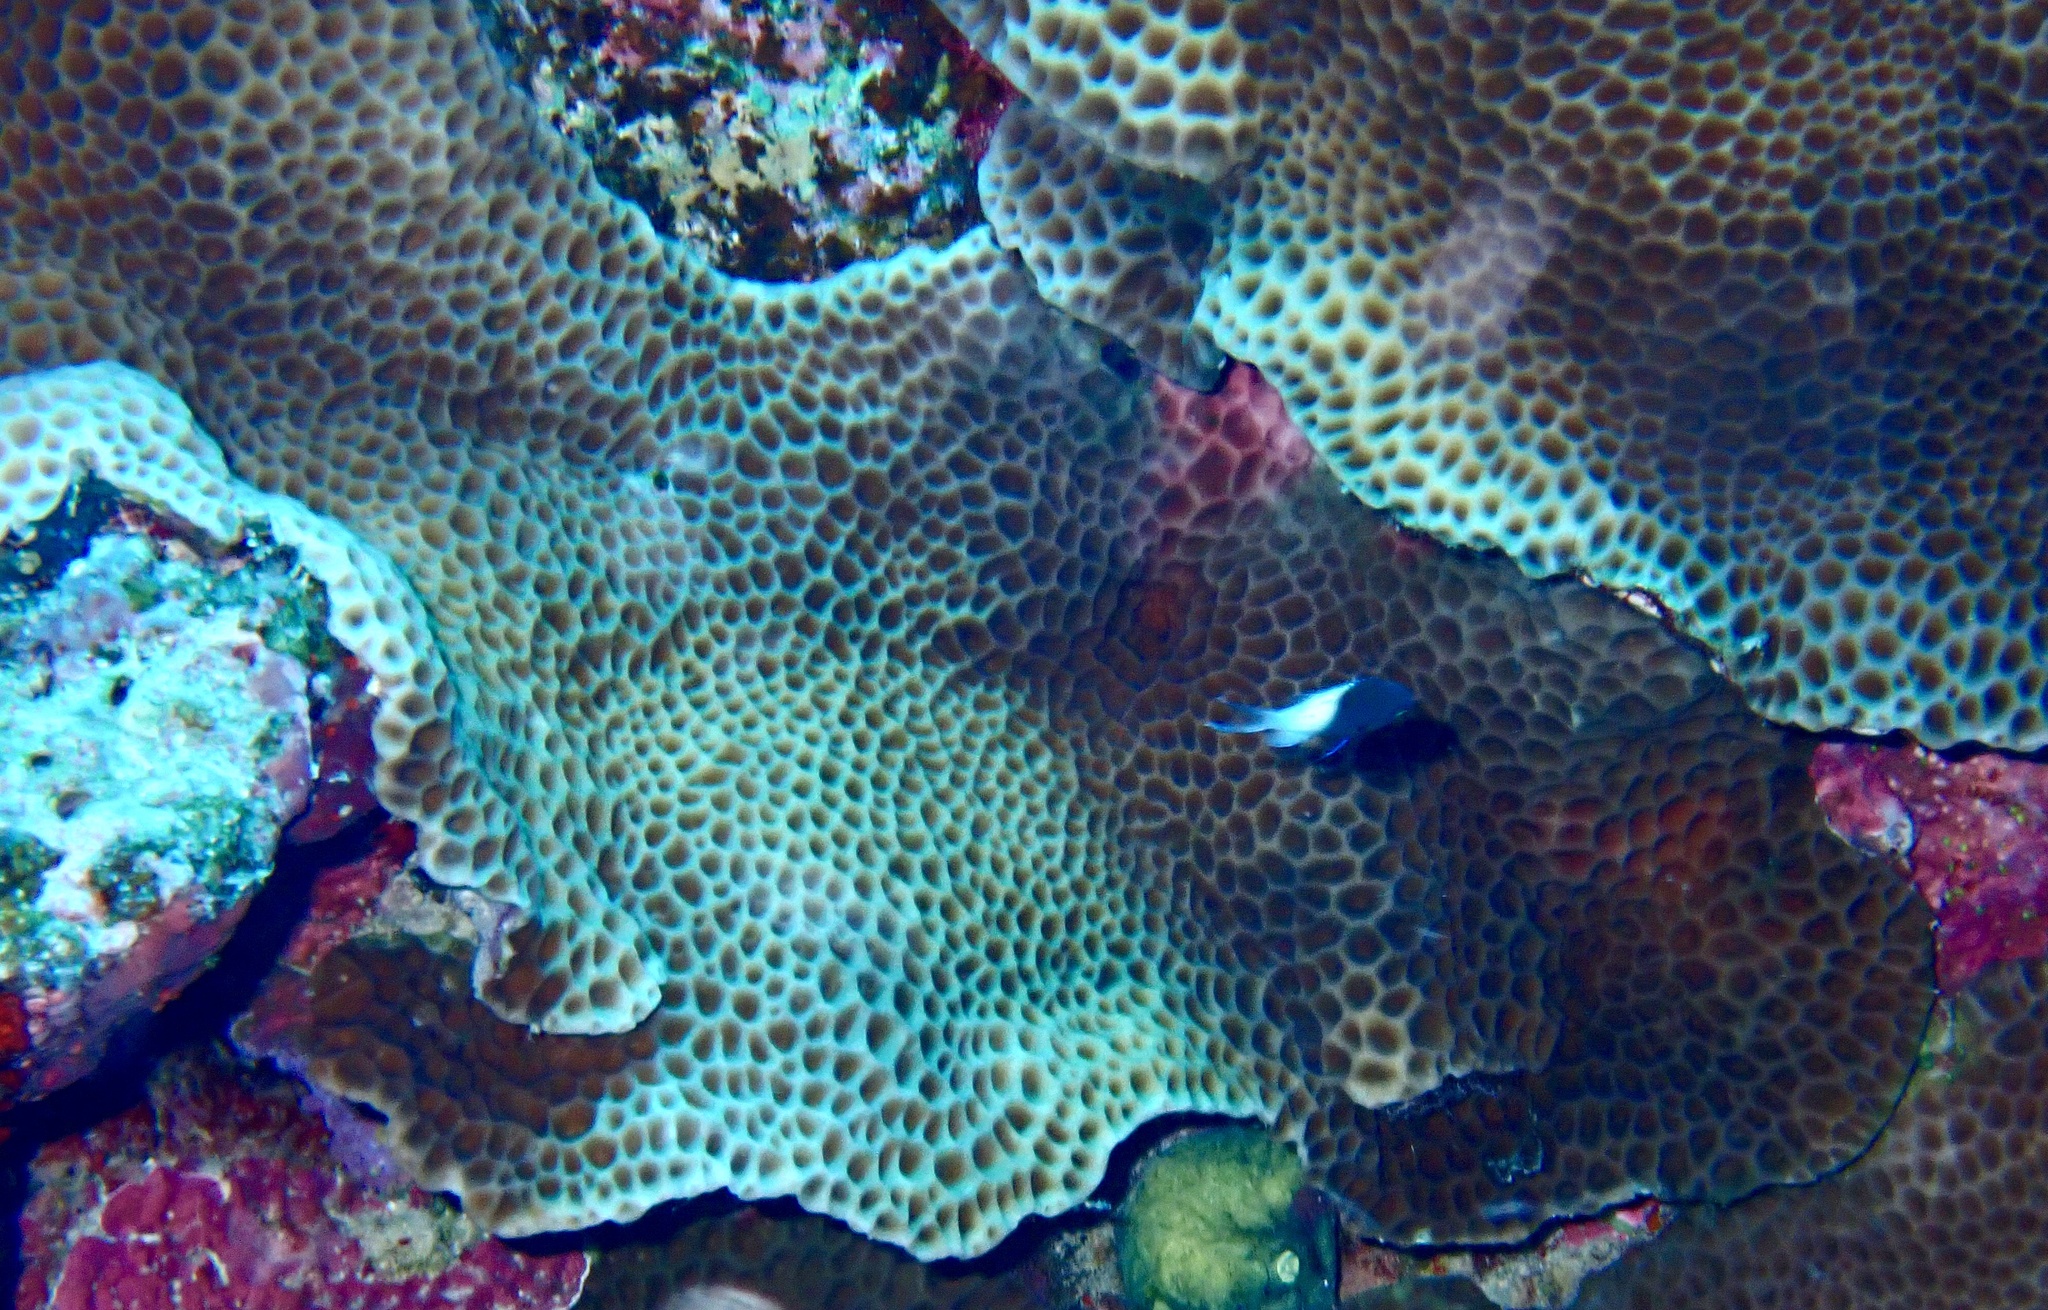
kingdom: Animalia
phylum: Cnidaria
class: Anthozoa
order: Scleractinia
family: Agariciidae
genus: Gardineroseris
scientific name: Gardineroseris planulata
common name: Gardiner's coral
